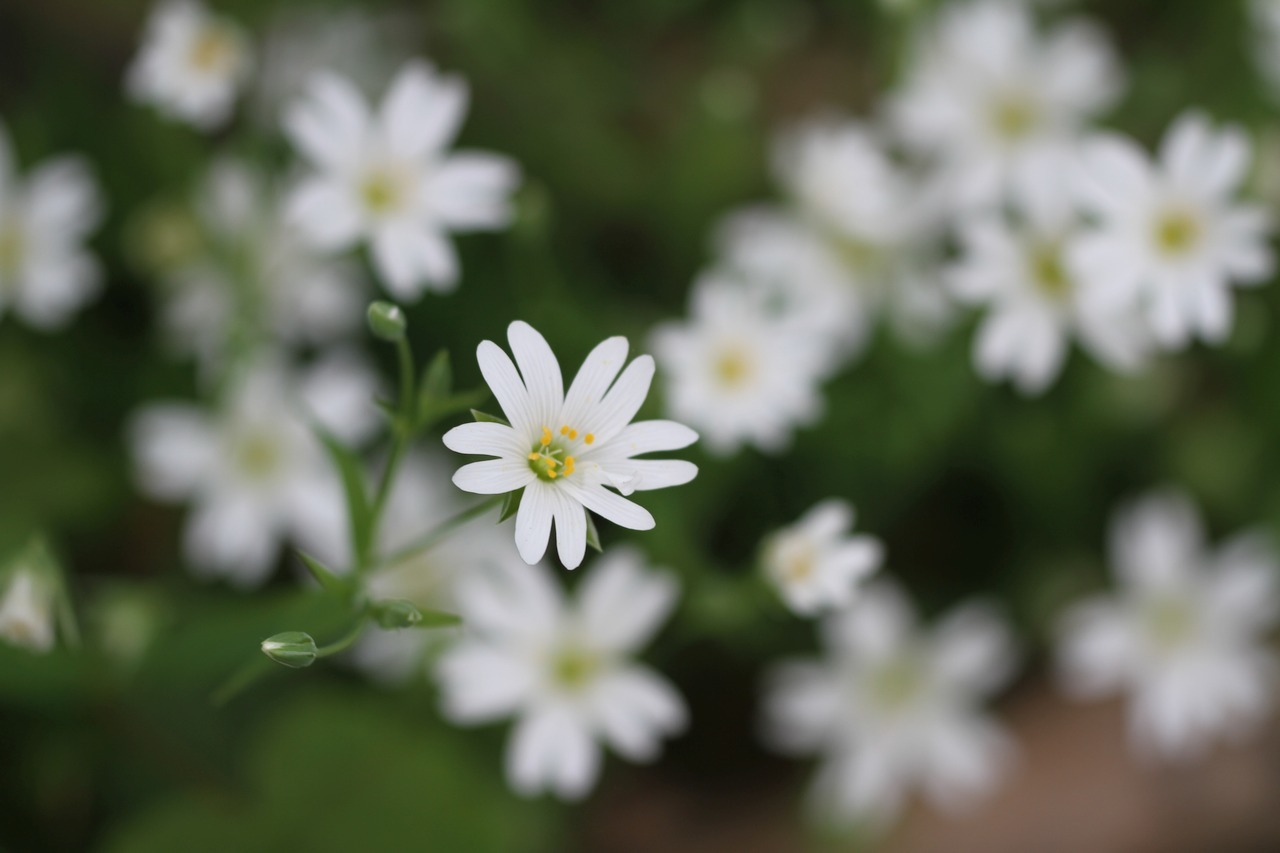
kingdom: Plantae
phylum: Tracheophyta
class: Magnoliopsida
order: Caryophyllales
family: Caryophyllaceae
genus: Rabelera
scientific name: Rabelera holostea
